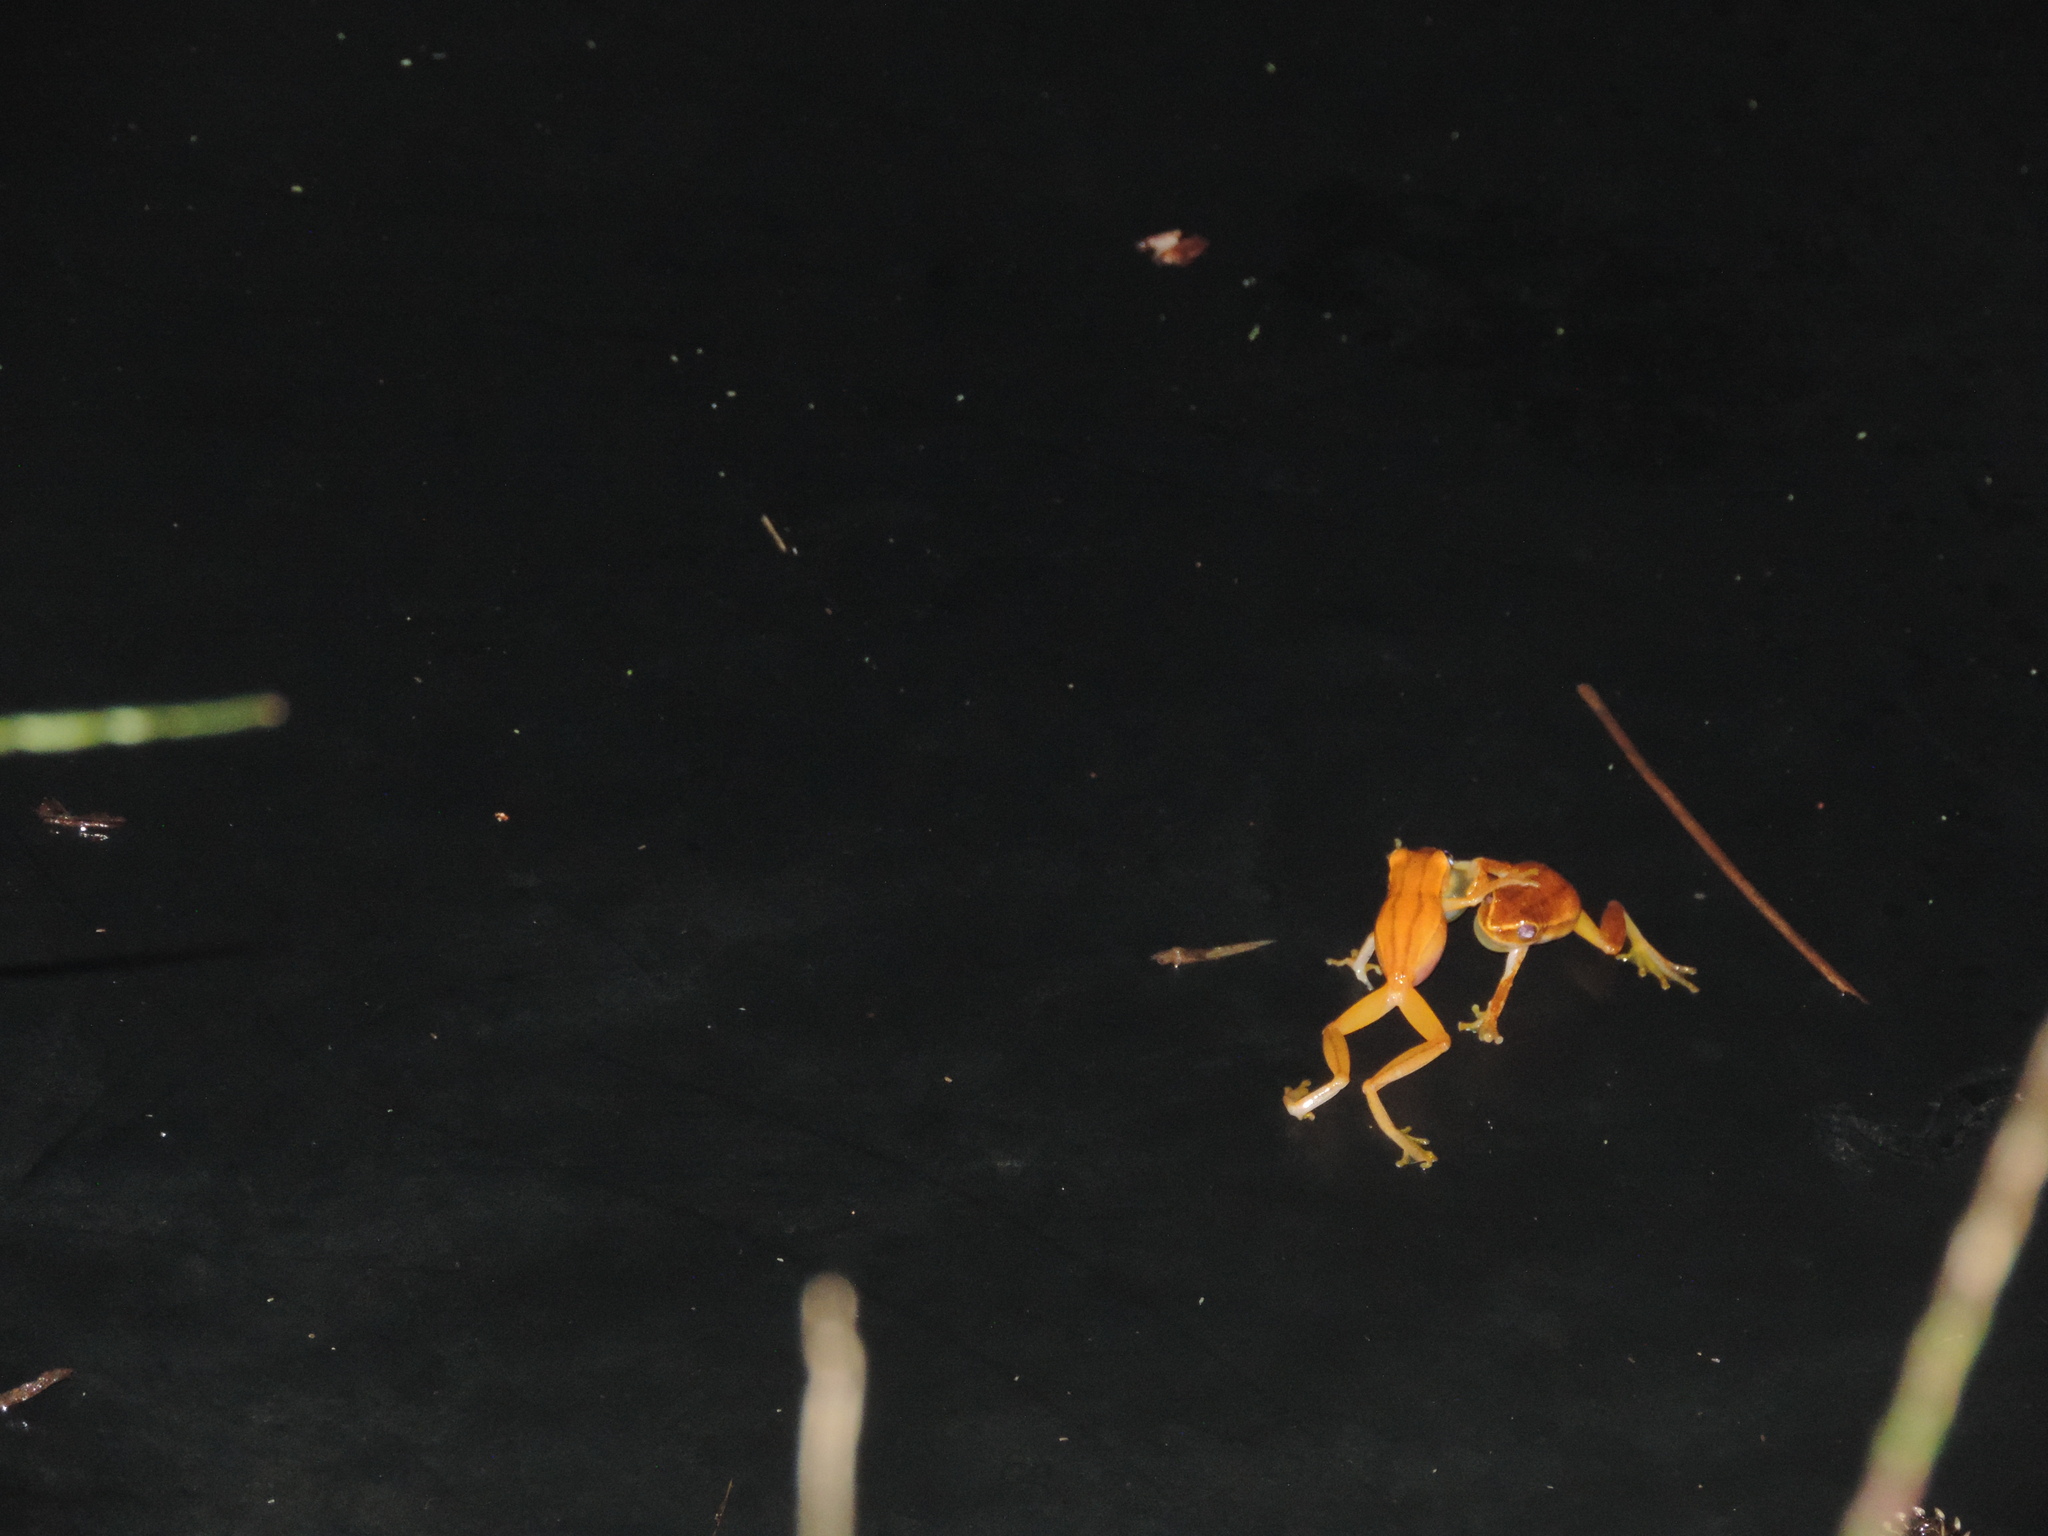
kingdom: Animalia
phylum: Chordata
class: Amphibia
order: Anura
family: Hylidae
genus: Dendropsophus
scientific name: Dendropsophus microcephalus
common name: Small-headed treefrog
